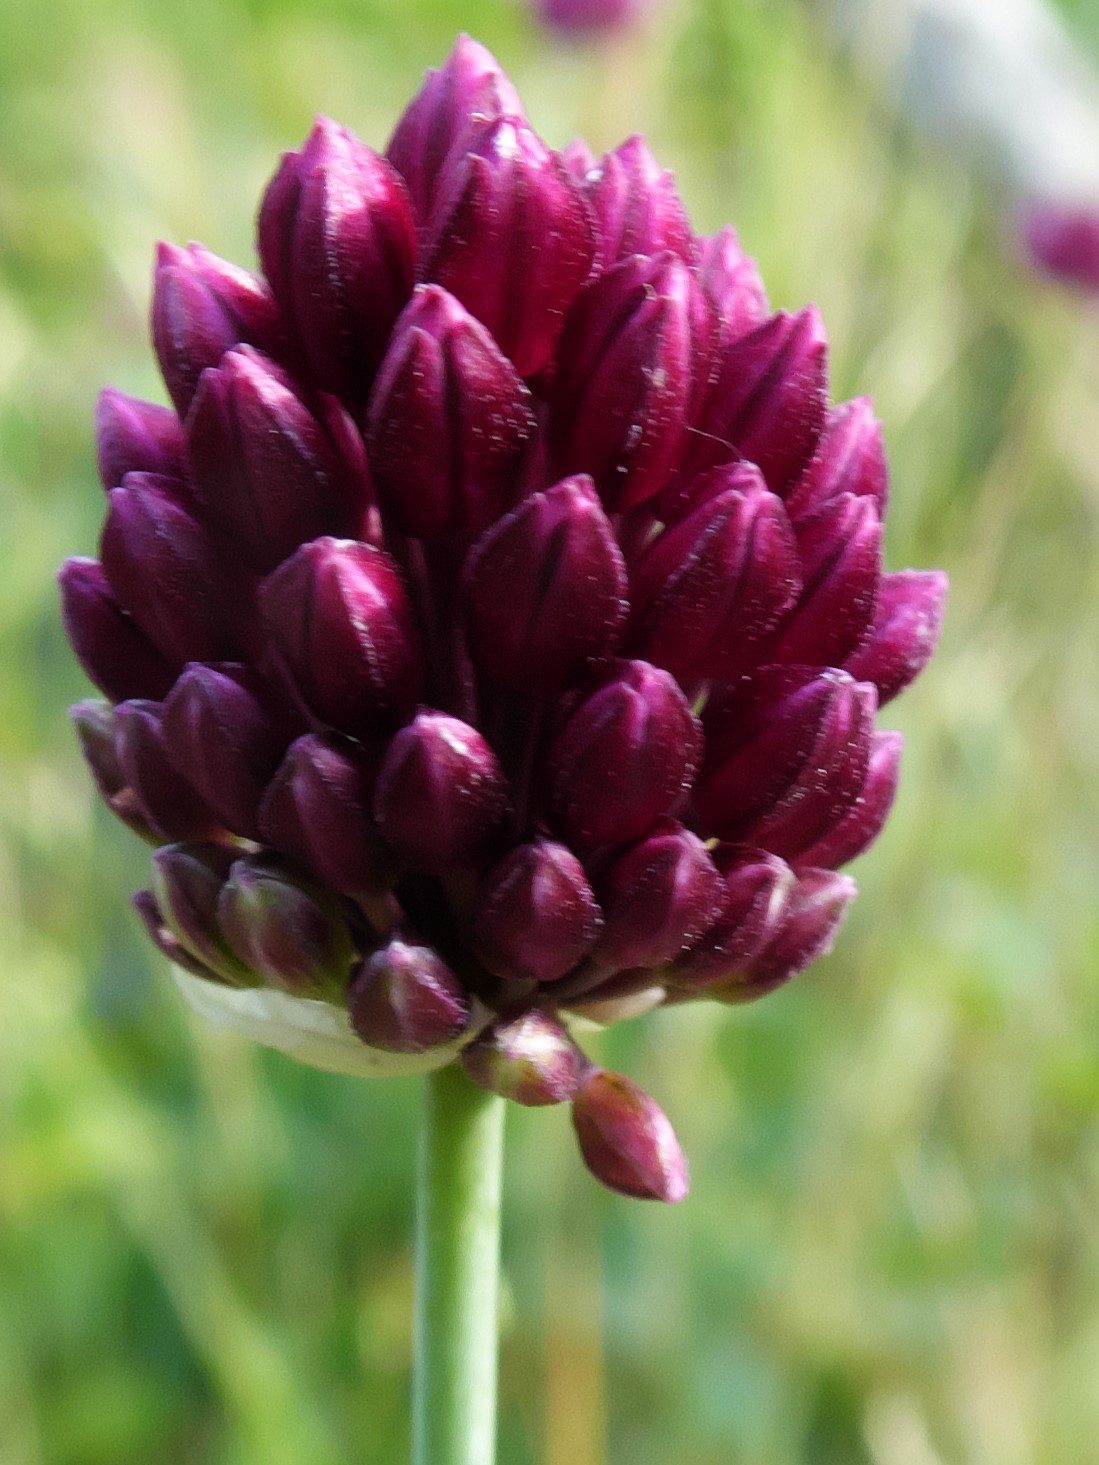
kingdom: Plantae
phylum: Tracheophyta
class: Liliopsida
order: Asparagales
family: Amaryllidaceae
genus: Allium
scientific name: Allium sphaerocephalon
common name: Round-headed leek
